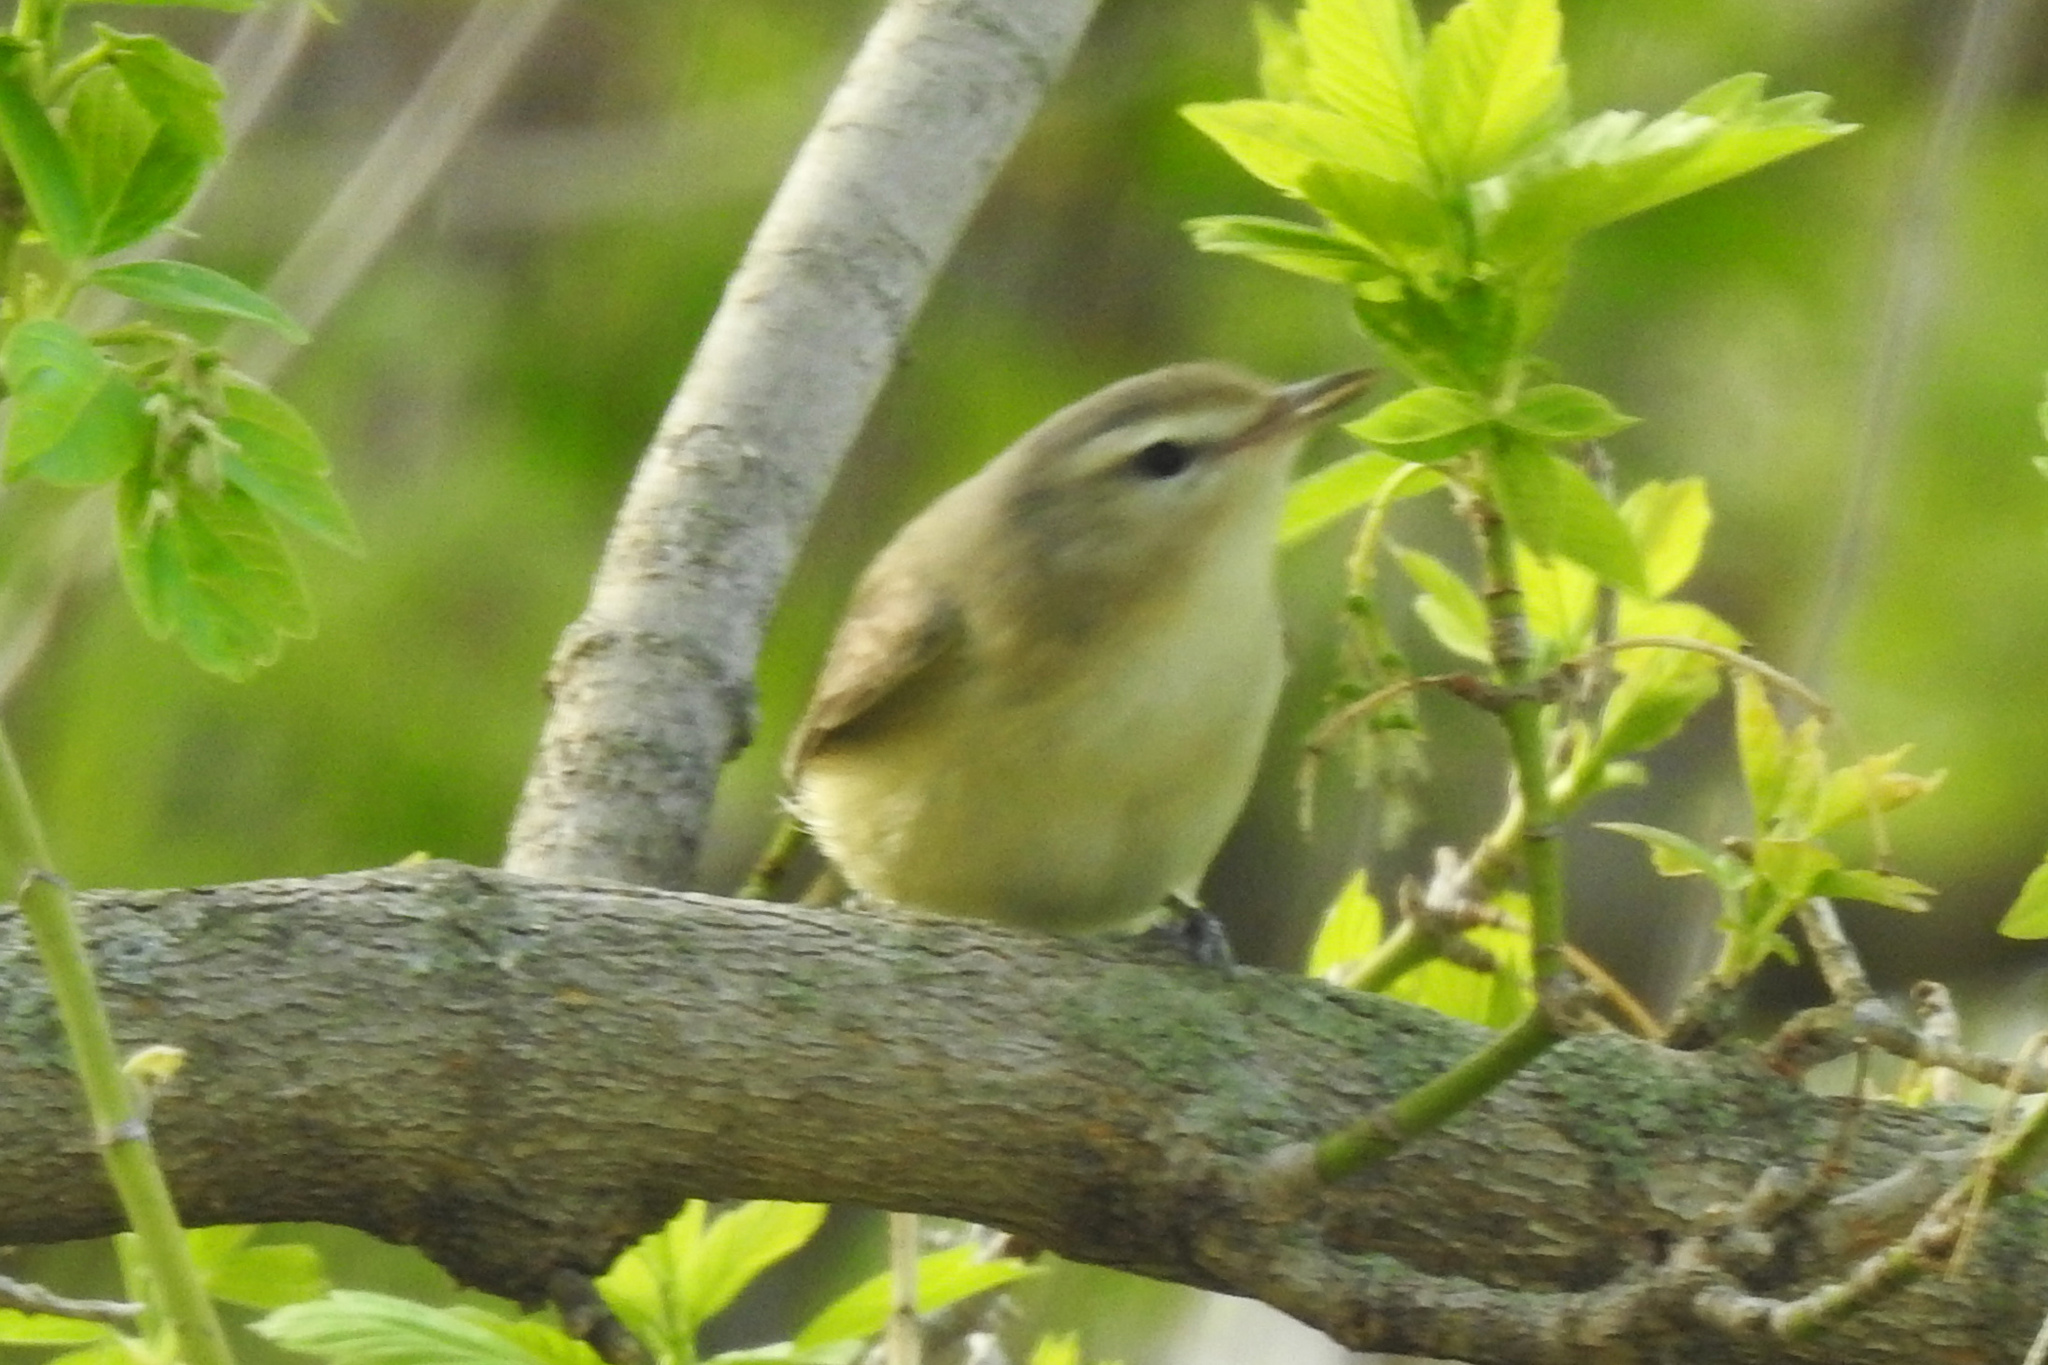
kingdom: Animalia
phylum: Chordata
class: Aves
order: Passeriformes
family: Vireonidae
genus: Vireo
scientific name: Vireo gilvus
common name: Warbling vireo
